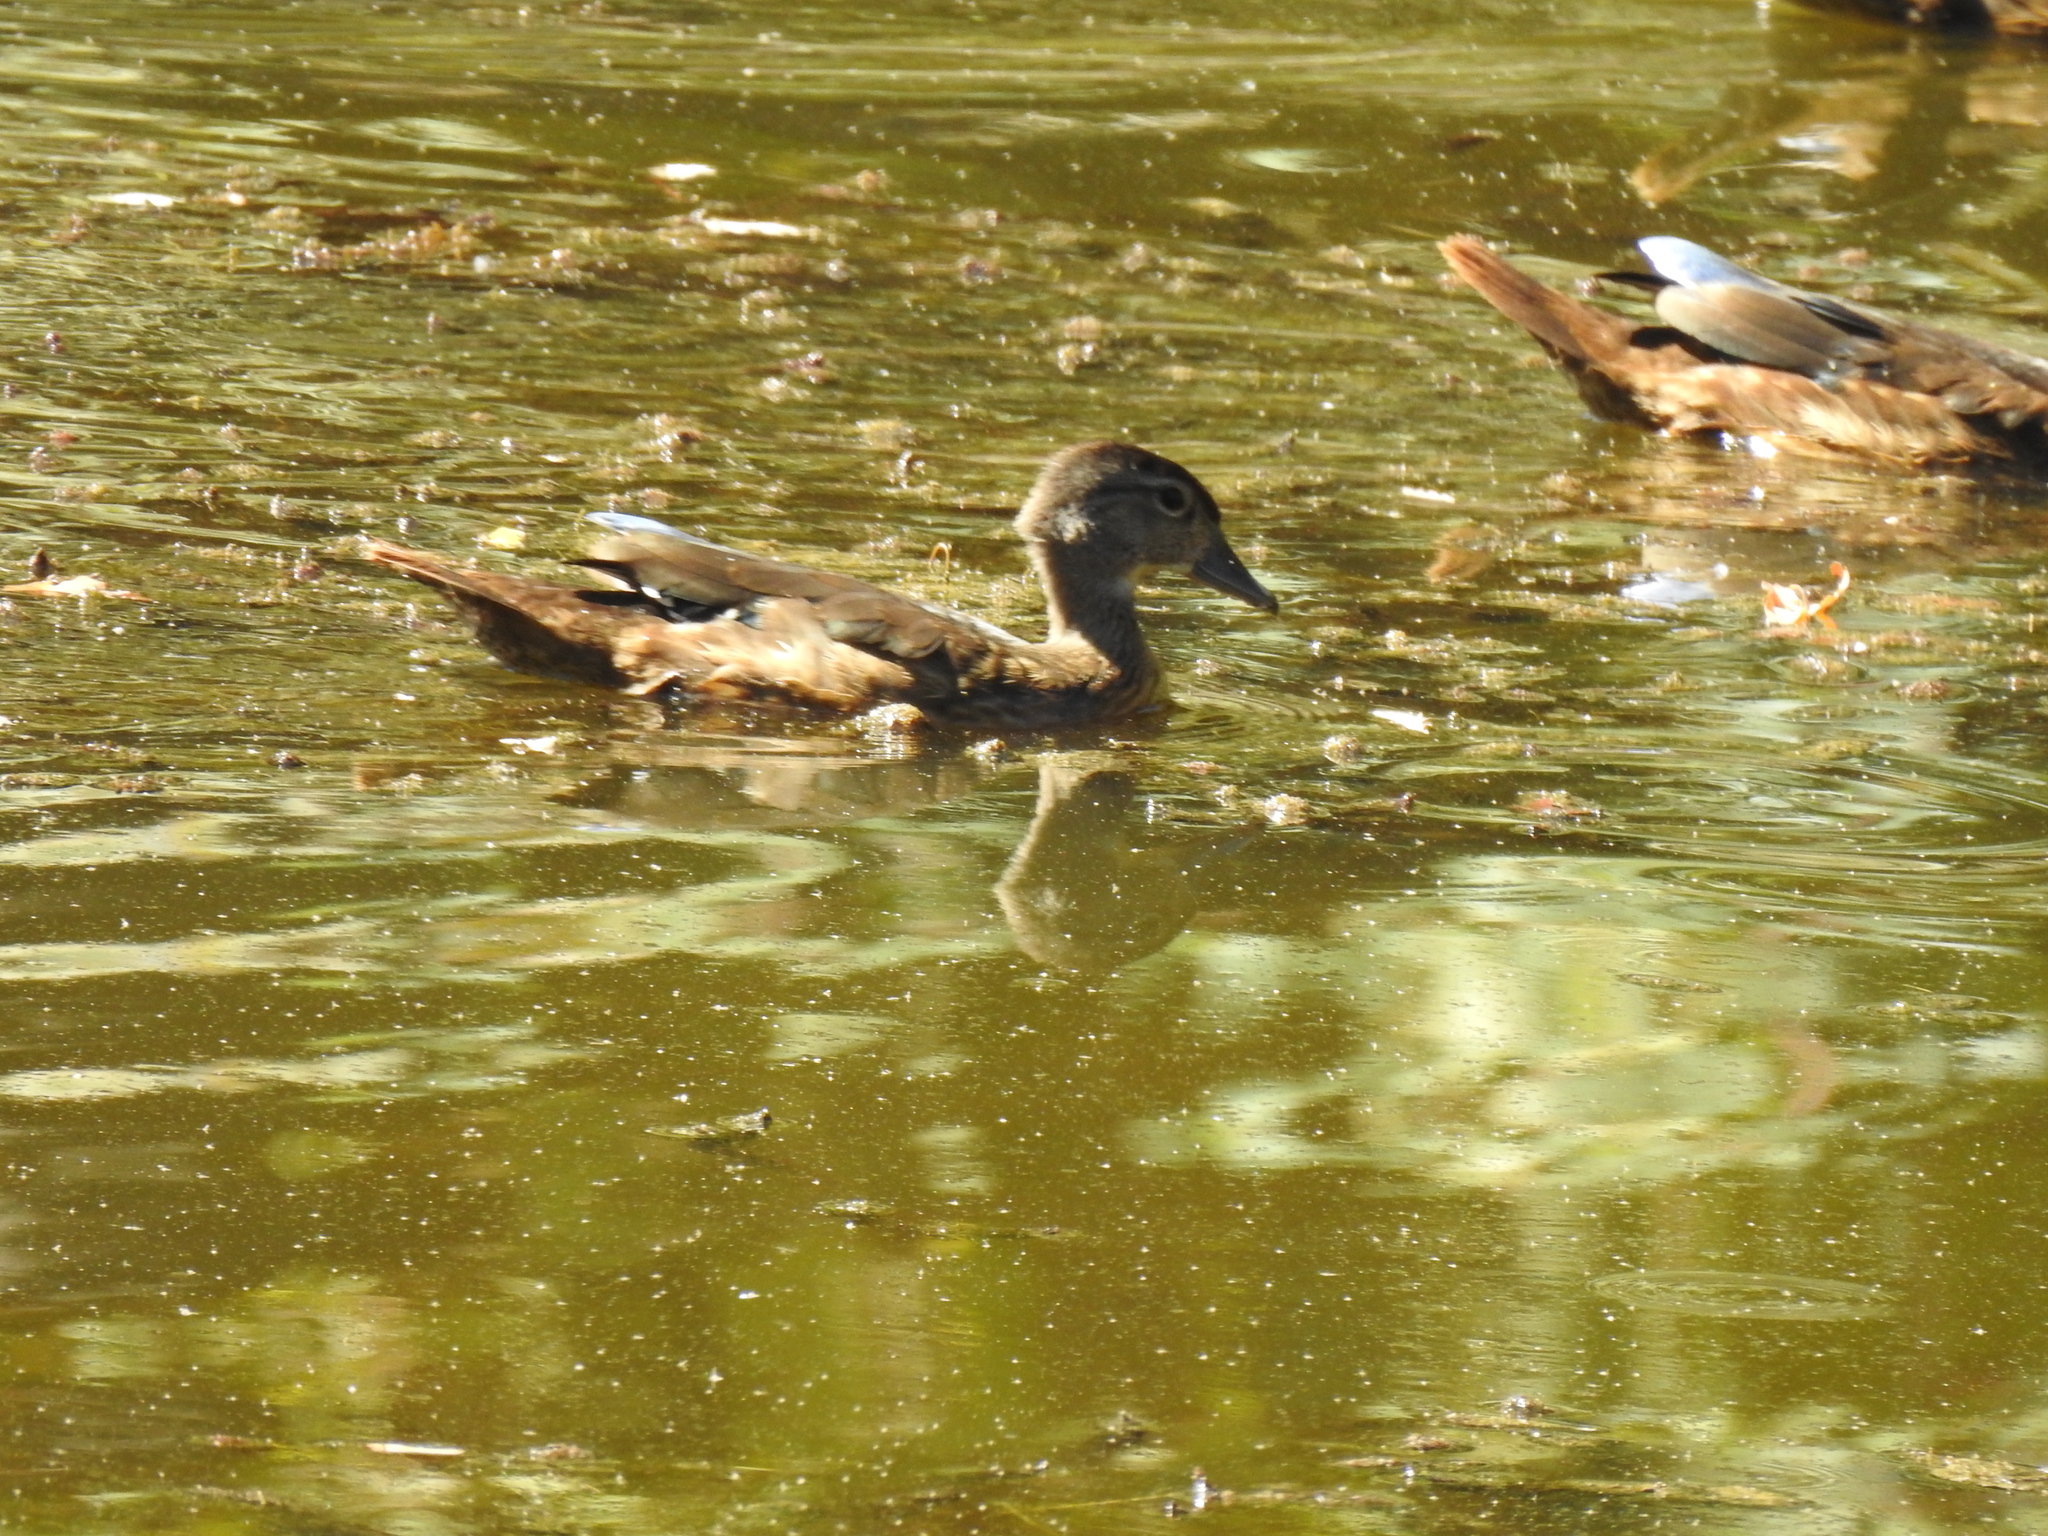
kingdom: Animalia
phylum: Chordata
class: Aves
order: Anseriformes
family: Anatidae
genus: Aix
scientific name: Aix sponsa
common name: Wood duck
